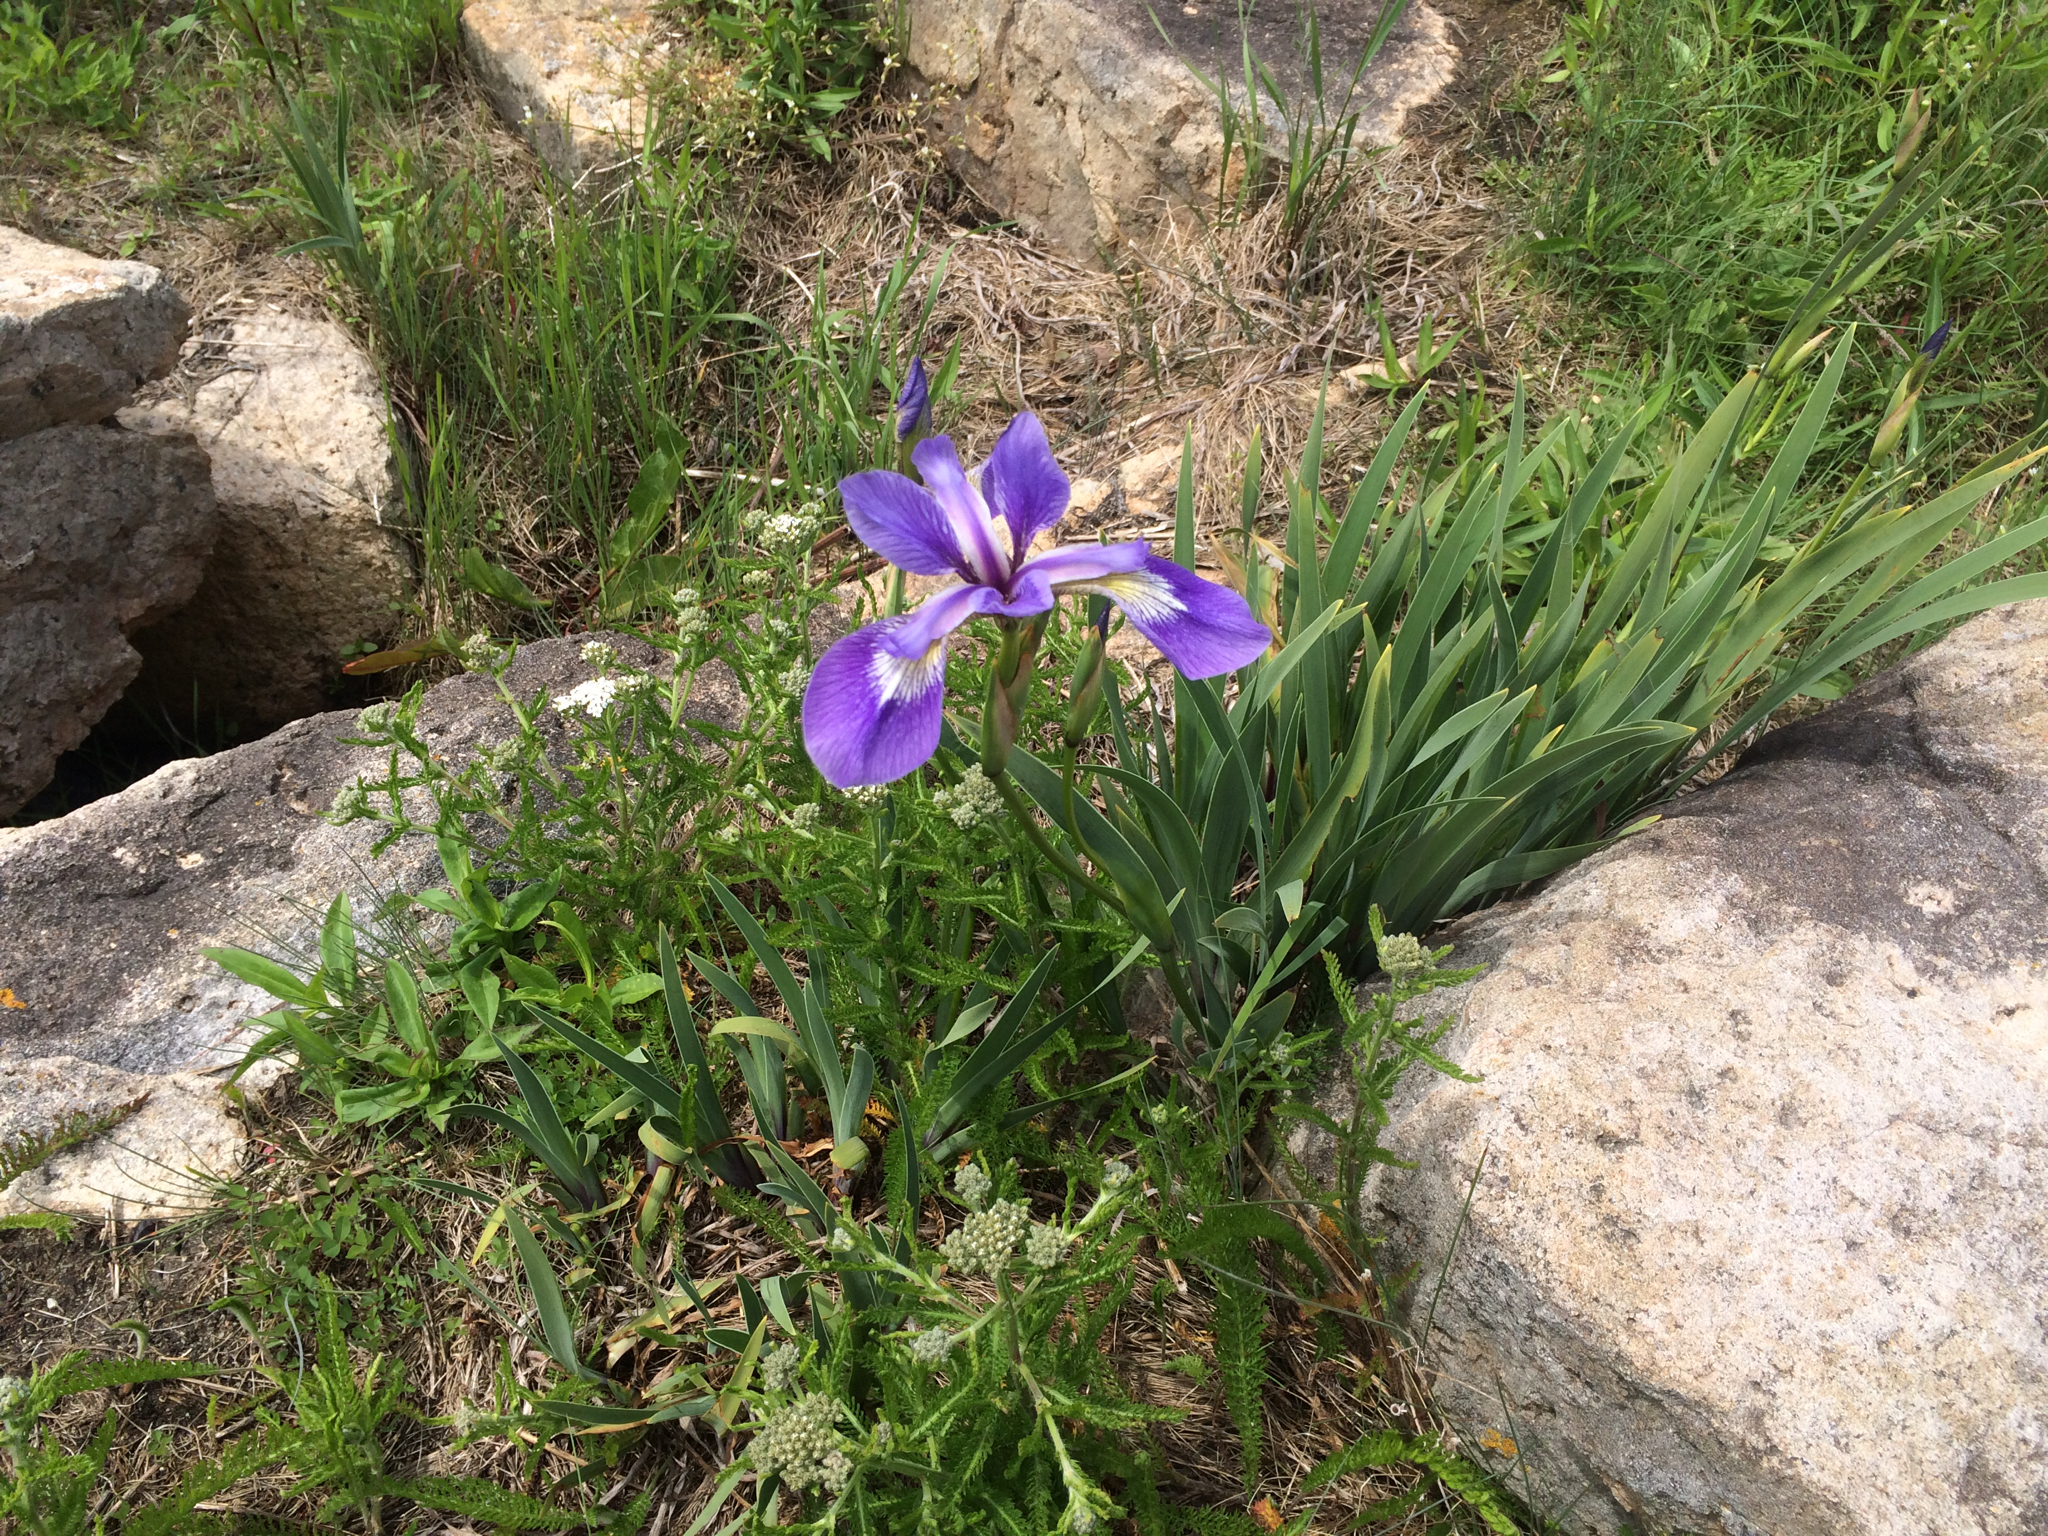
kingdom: Plantae
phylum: Tracheophyta
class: Liliopsida
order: Asparagales
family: Iridaceae
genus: Iris
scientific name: Iris versicolor
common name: Purple iris
